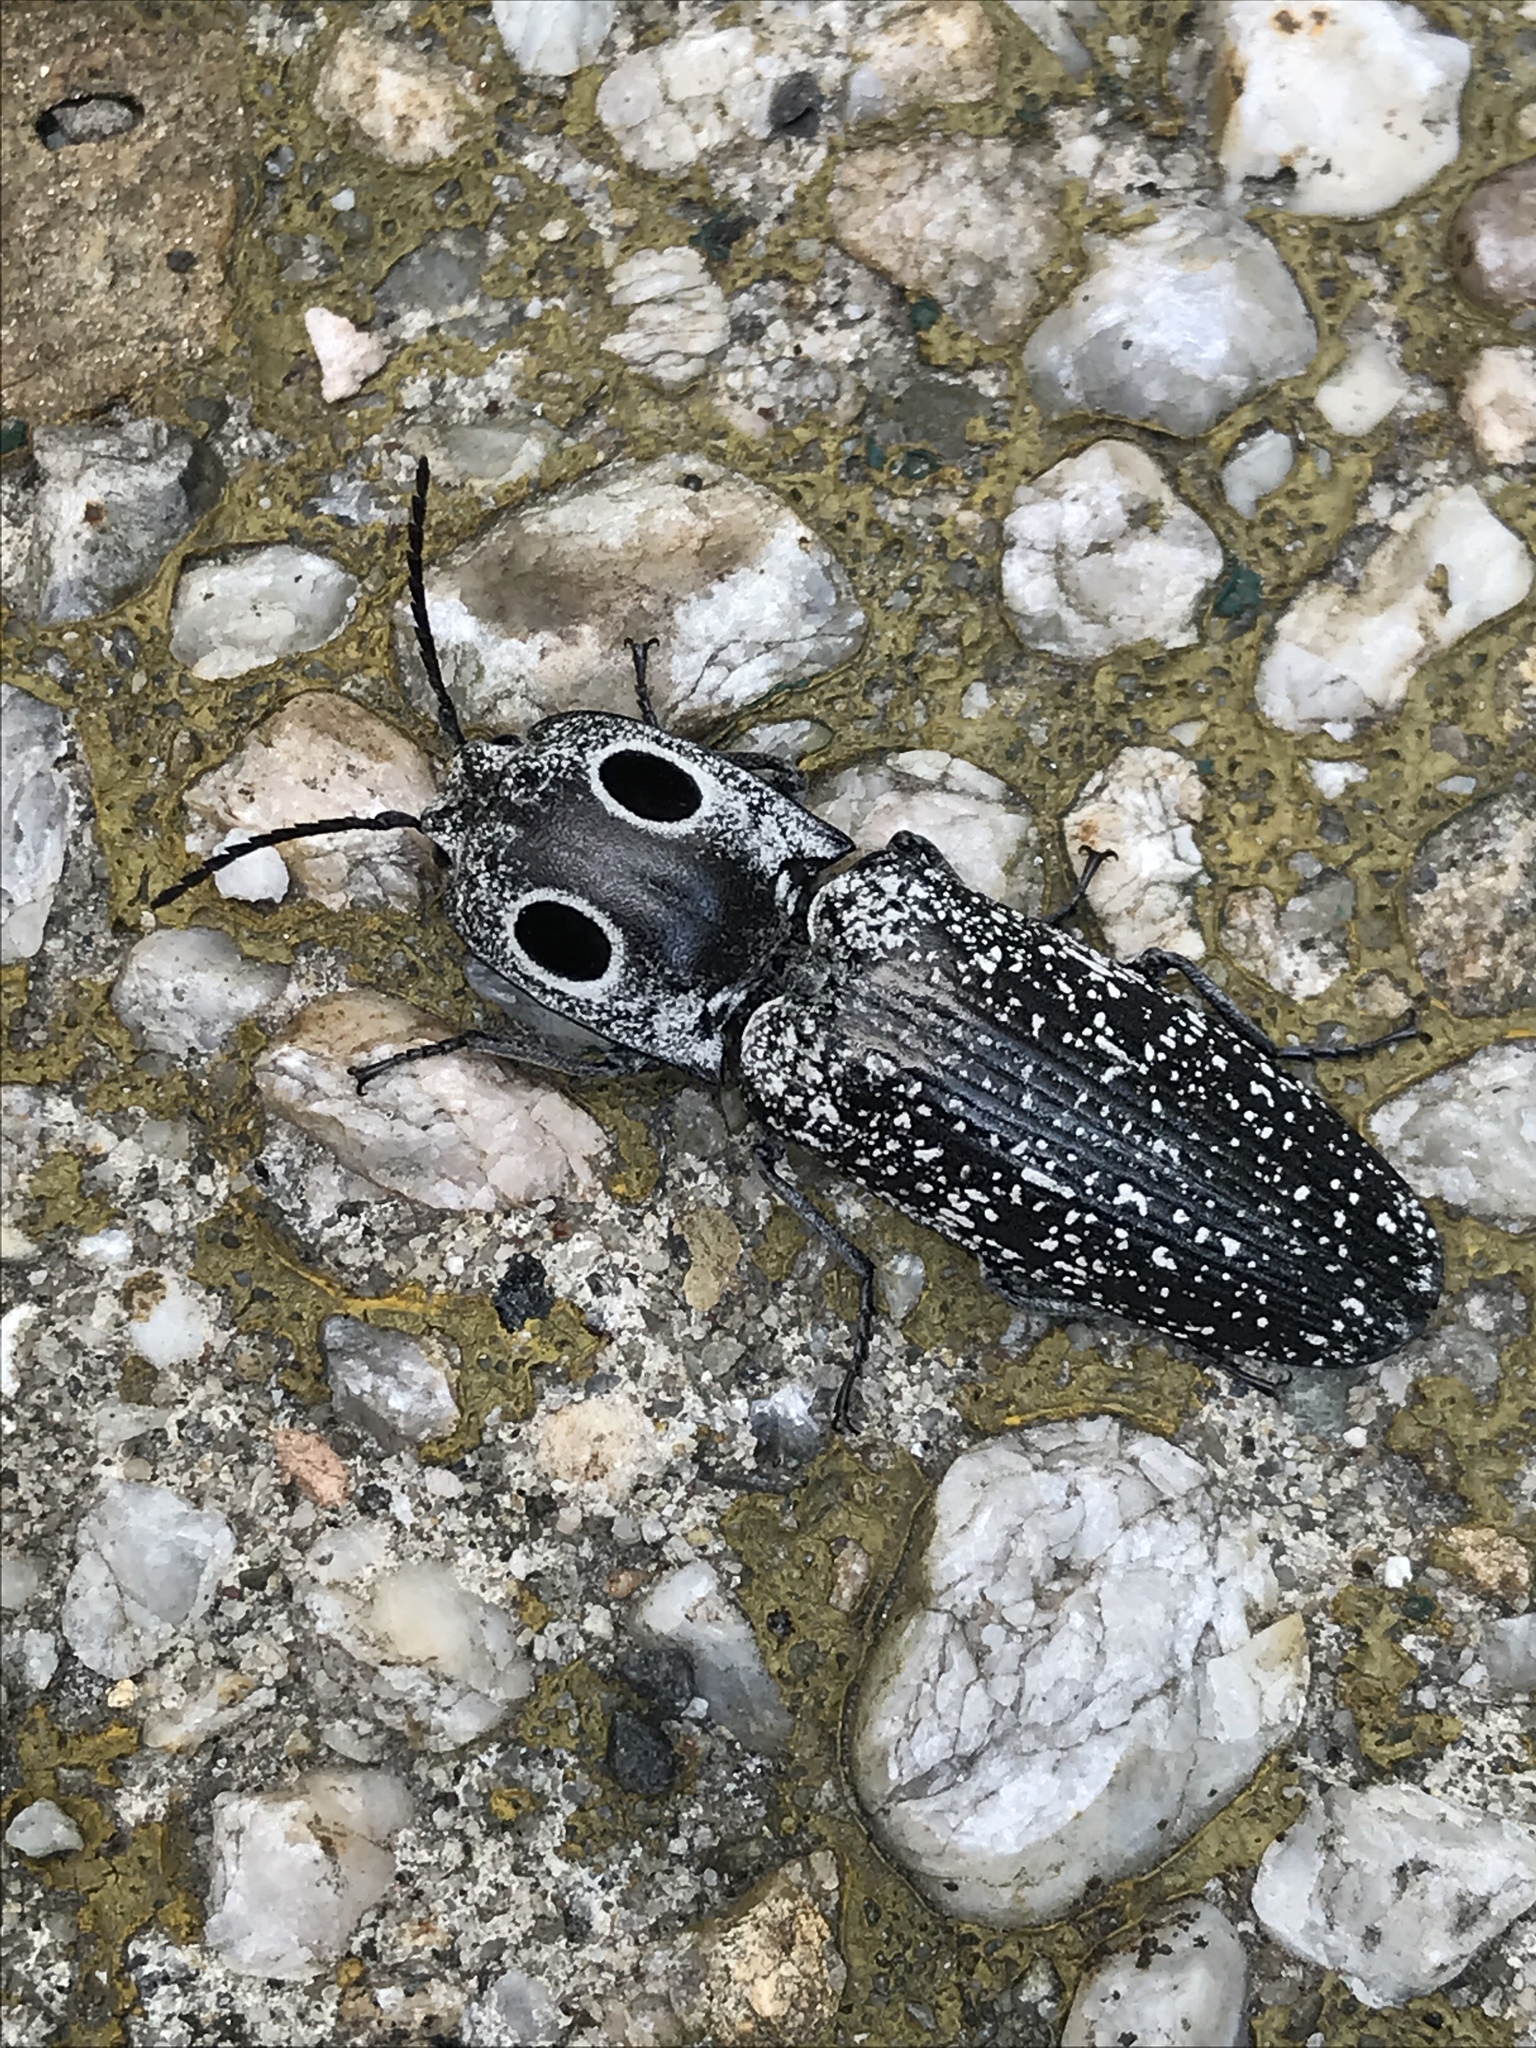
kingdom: Animalia
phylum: Arthropoda
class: Insecta
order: Coleoptera
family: Elateridae
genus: Alaus
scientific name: Alaus oculatus
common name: Eastern eyed click beetle
